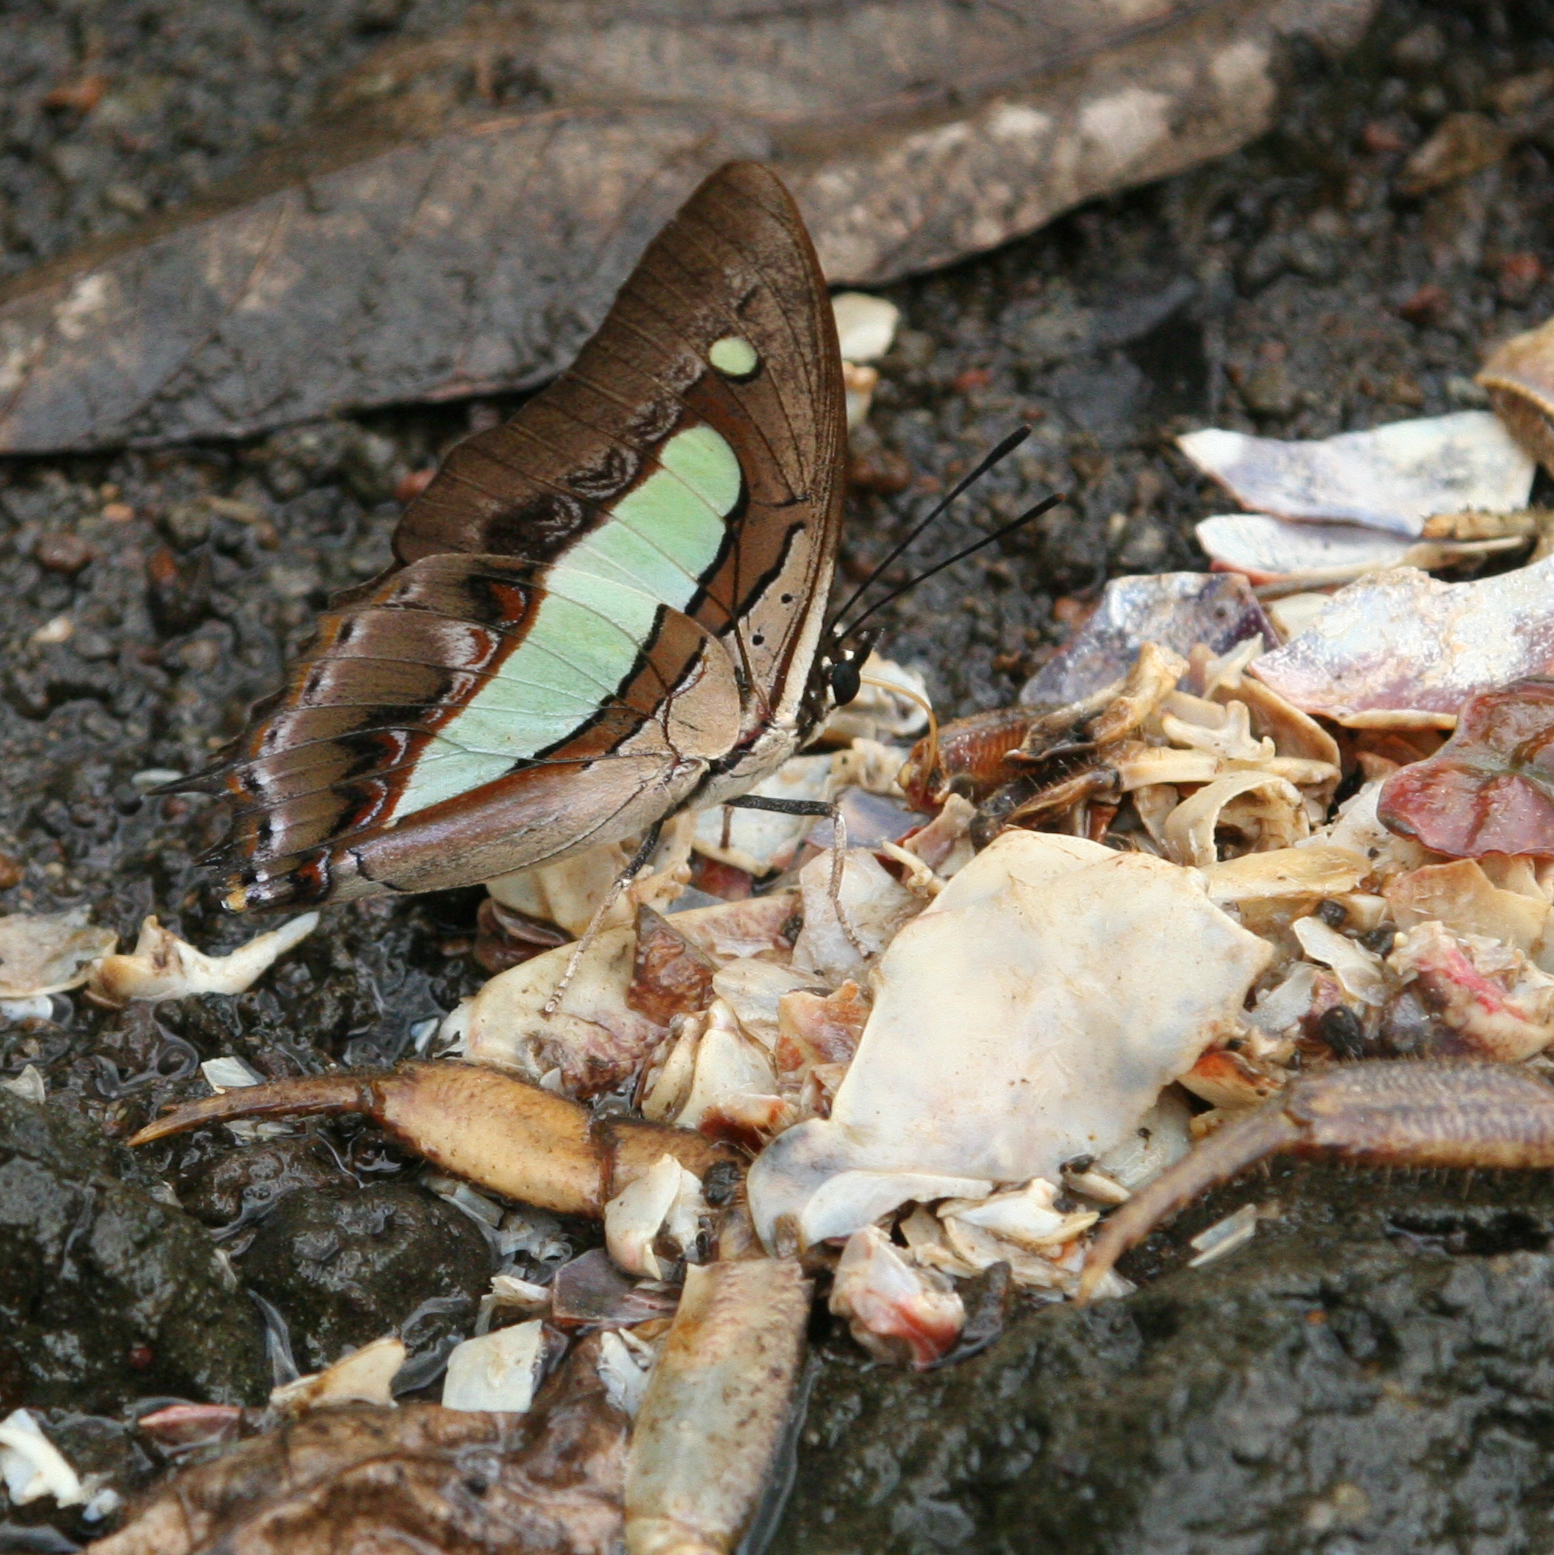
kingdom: Animalia
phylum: Arthropoda
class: Insecta
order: Lepidoptera
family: Nymphalidae
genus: Polyura
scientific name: Polyura athamas
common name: Common nawab
